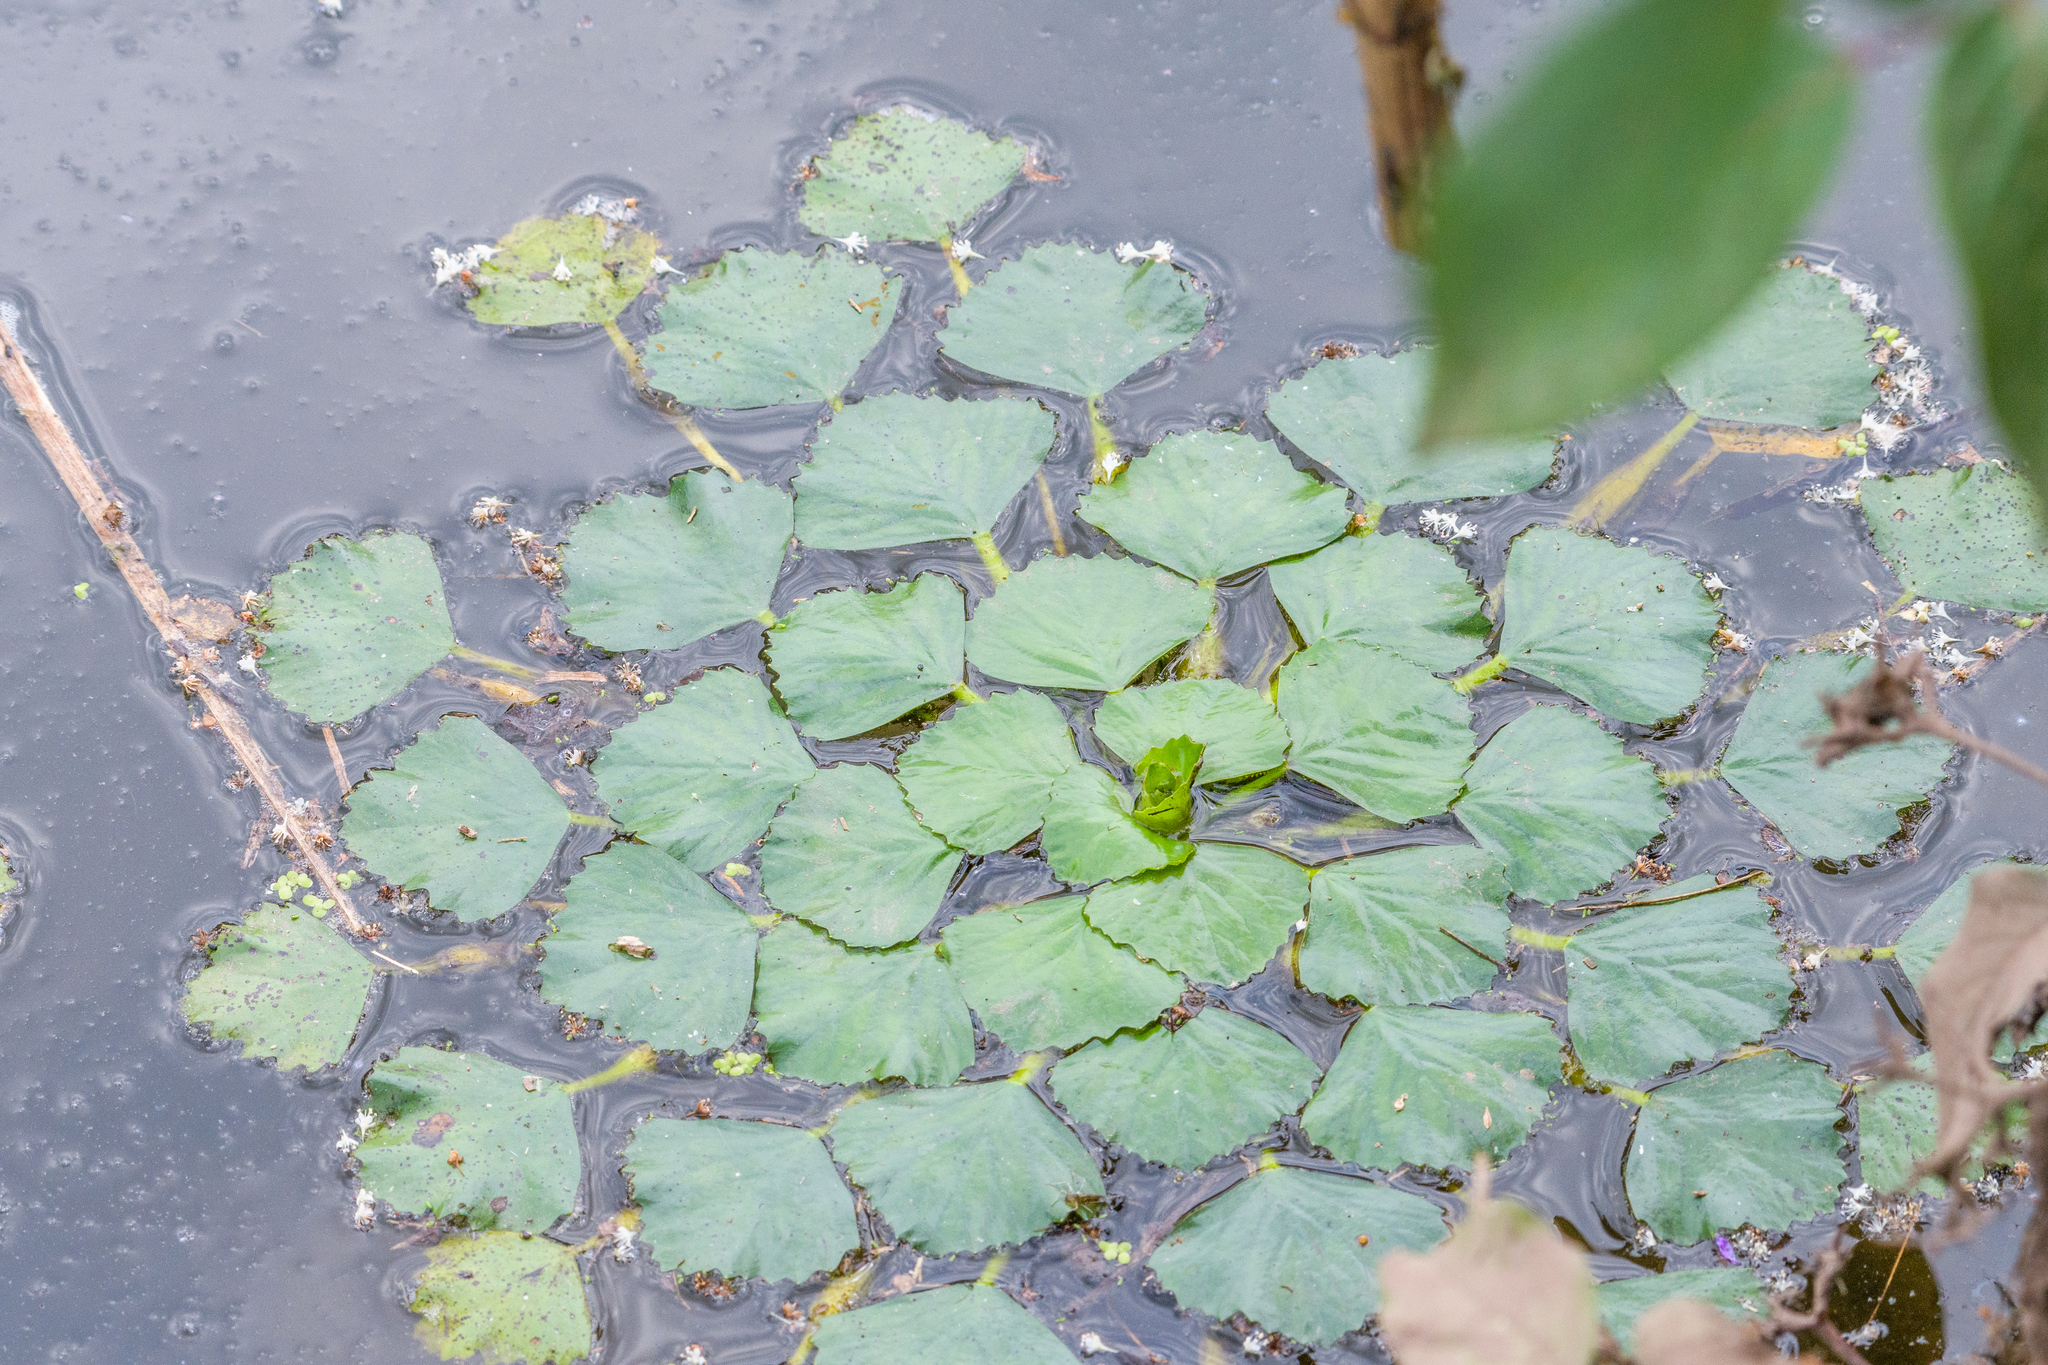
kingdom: Plantae
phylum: Tracheophyta
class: Magnoliopsida
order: Myrtales
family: Lythraceae
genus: Trapa
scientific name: Trapa natans
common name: Water chestnut
